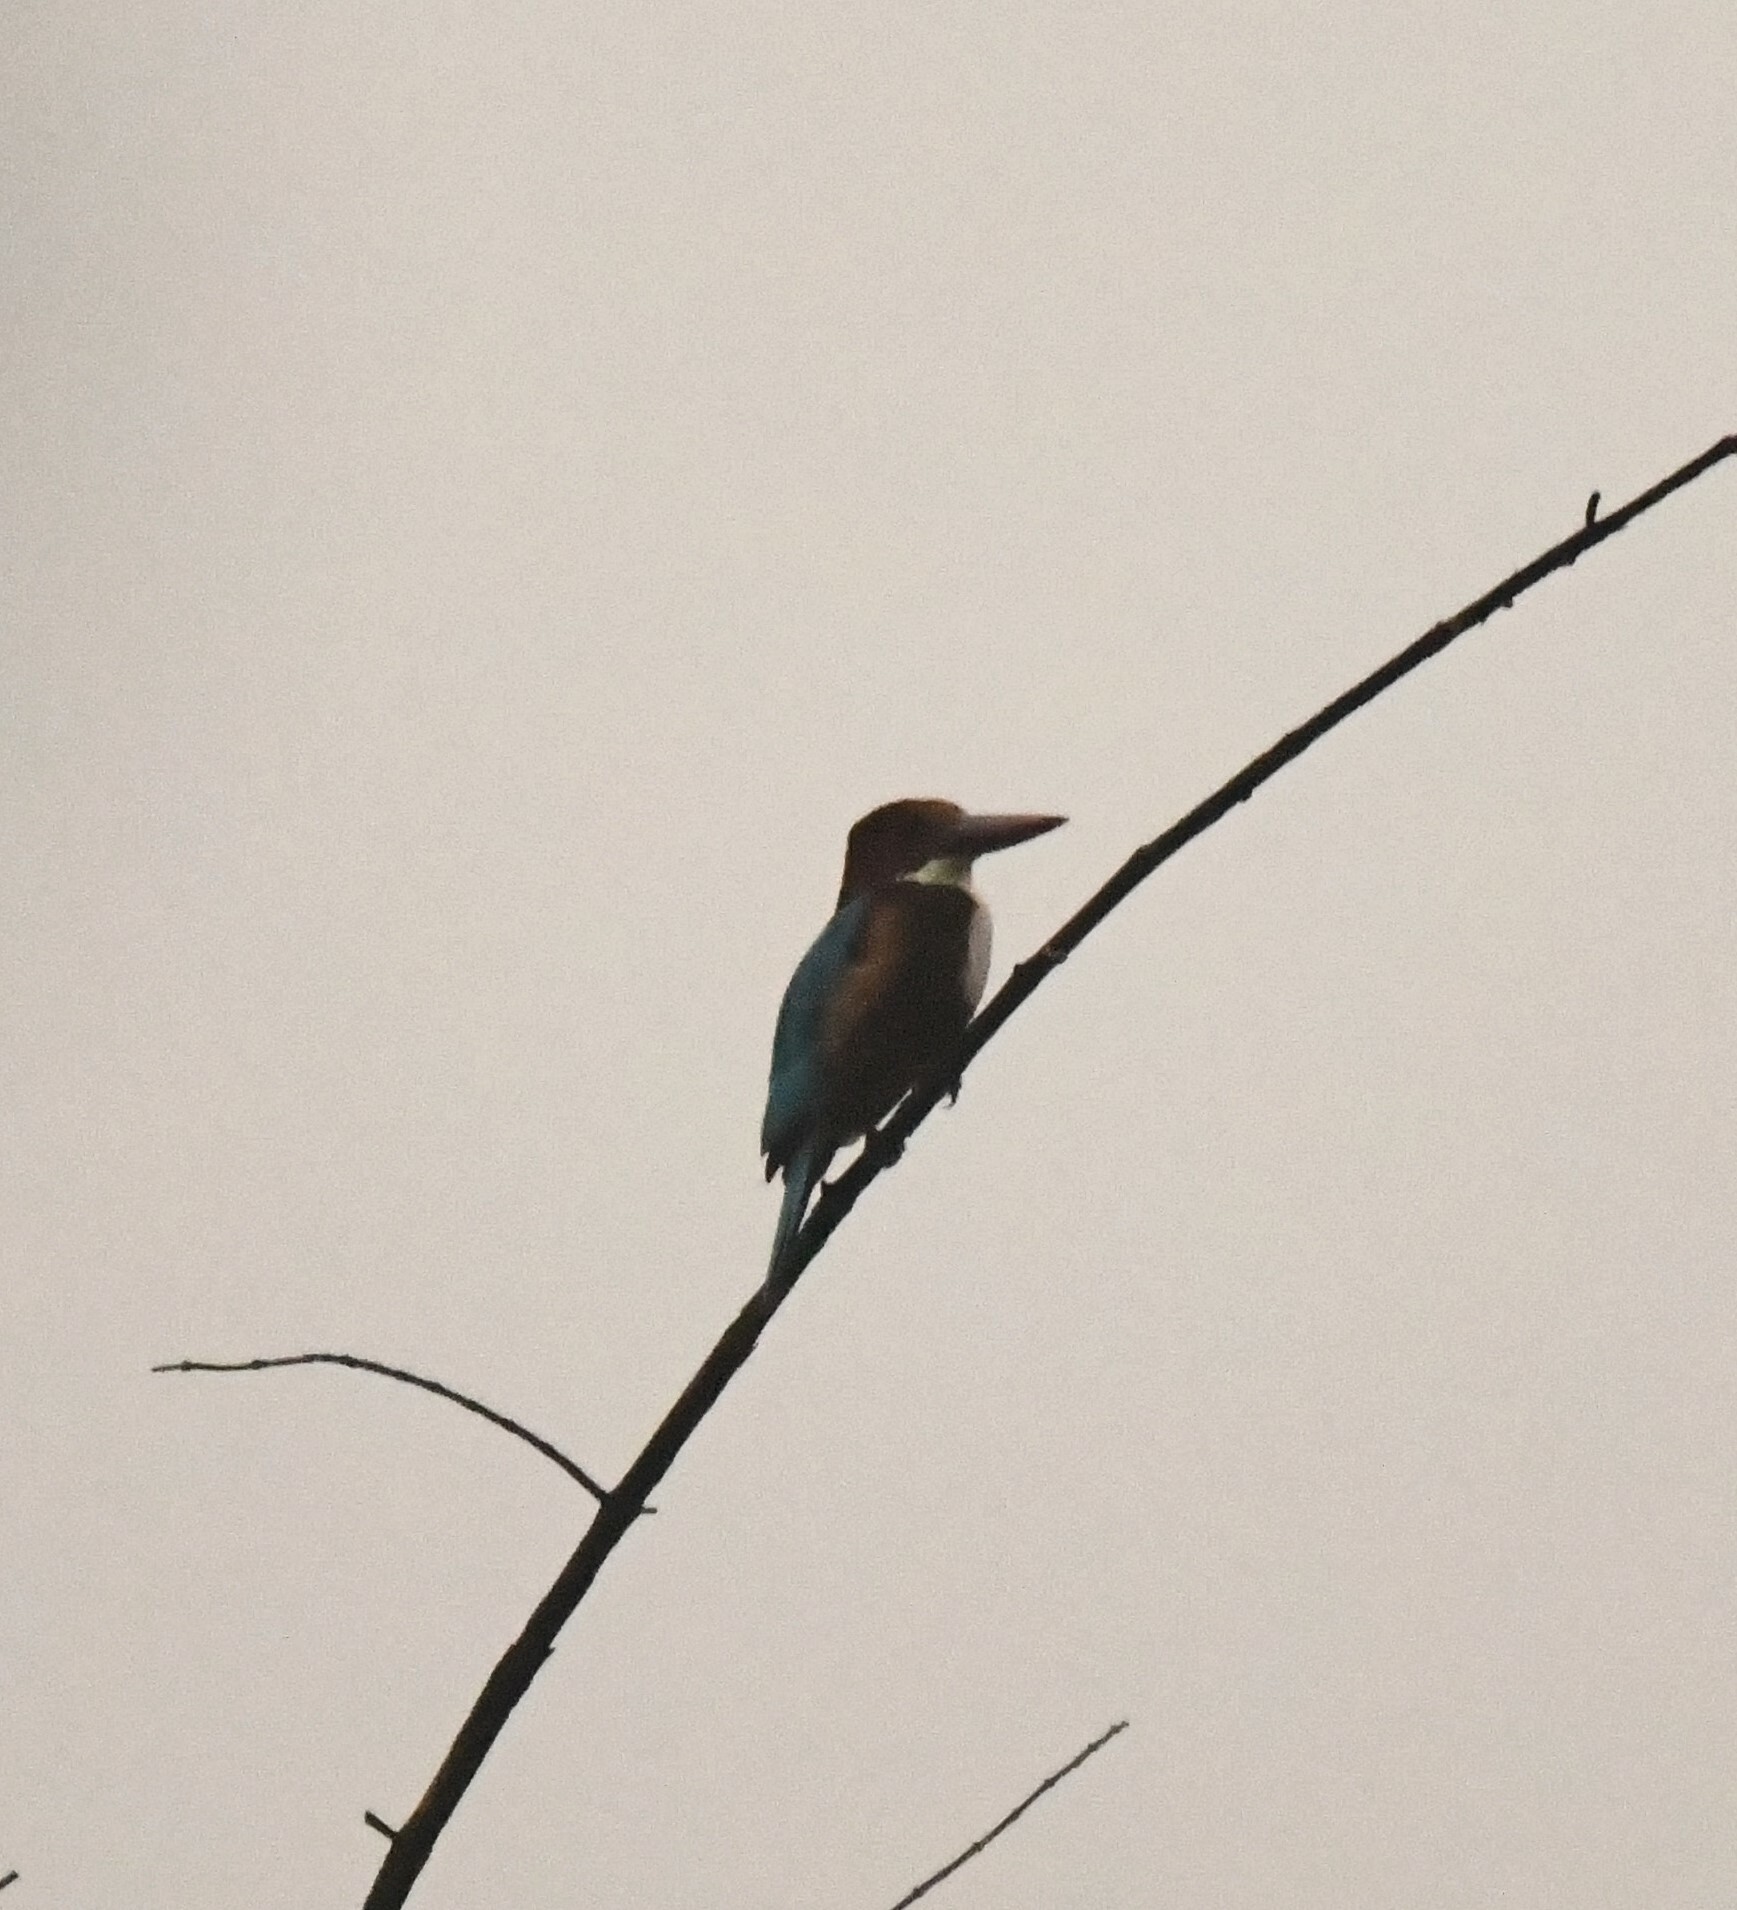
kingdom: Animalia
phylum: Chordata
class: Aves
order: Coraciiformes
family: Alcedinidae
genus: Halcyon
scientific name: Halcyon smyrnensis
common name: White-throated kingfisher
